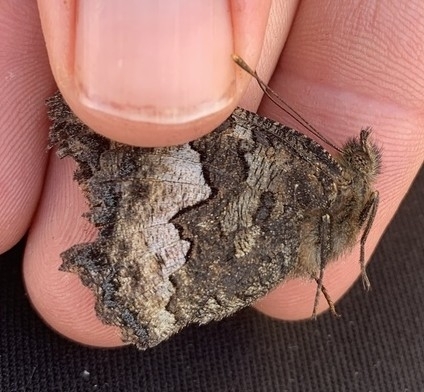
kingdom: Animalia
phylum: Arthropoda
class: Insecta
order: Lepidoptera
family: Nymphalidae
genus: Nymphalis
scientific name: Nymphalis californica
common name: California tortoiseshell
